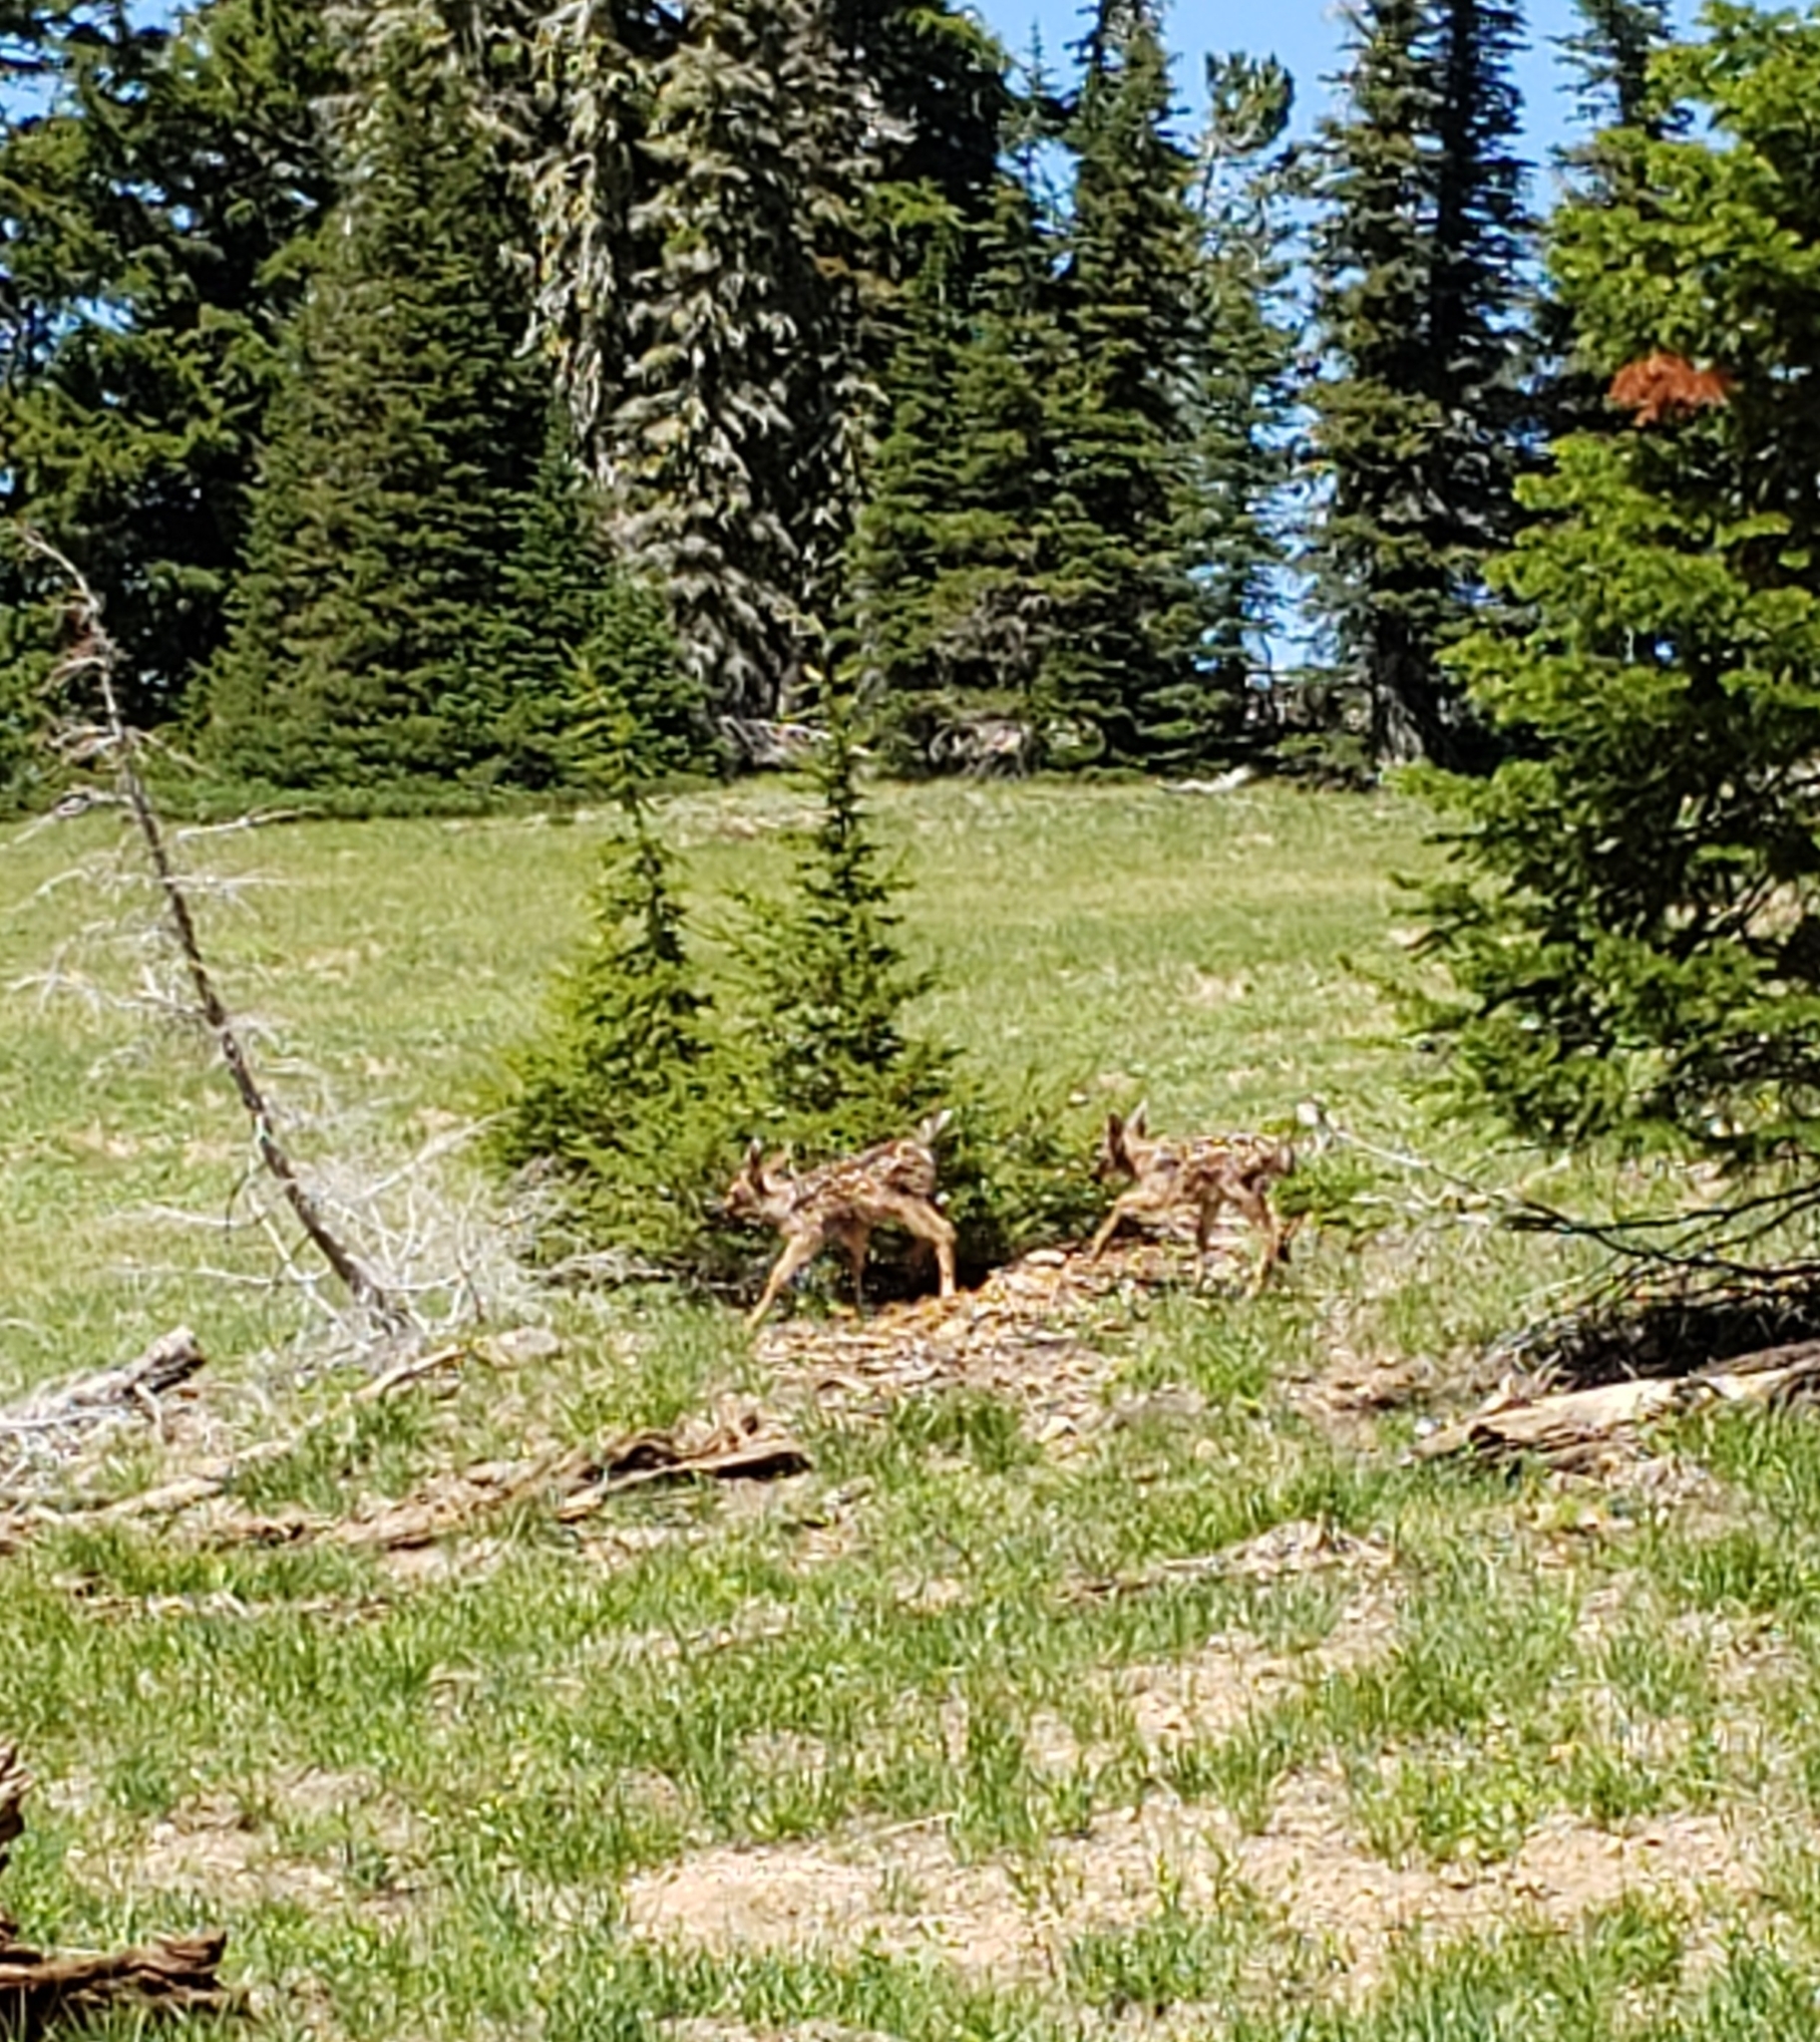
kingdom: Animalia
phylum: Chordata
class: Mammalia
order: Artiodactyla
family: Cervidae
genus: Odocoileus
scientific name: Odocoileus hemionus
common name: Mule deer
